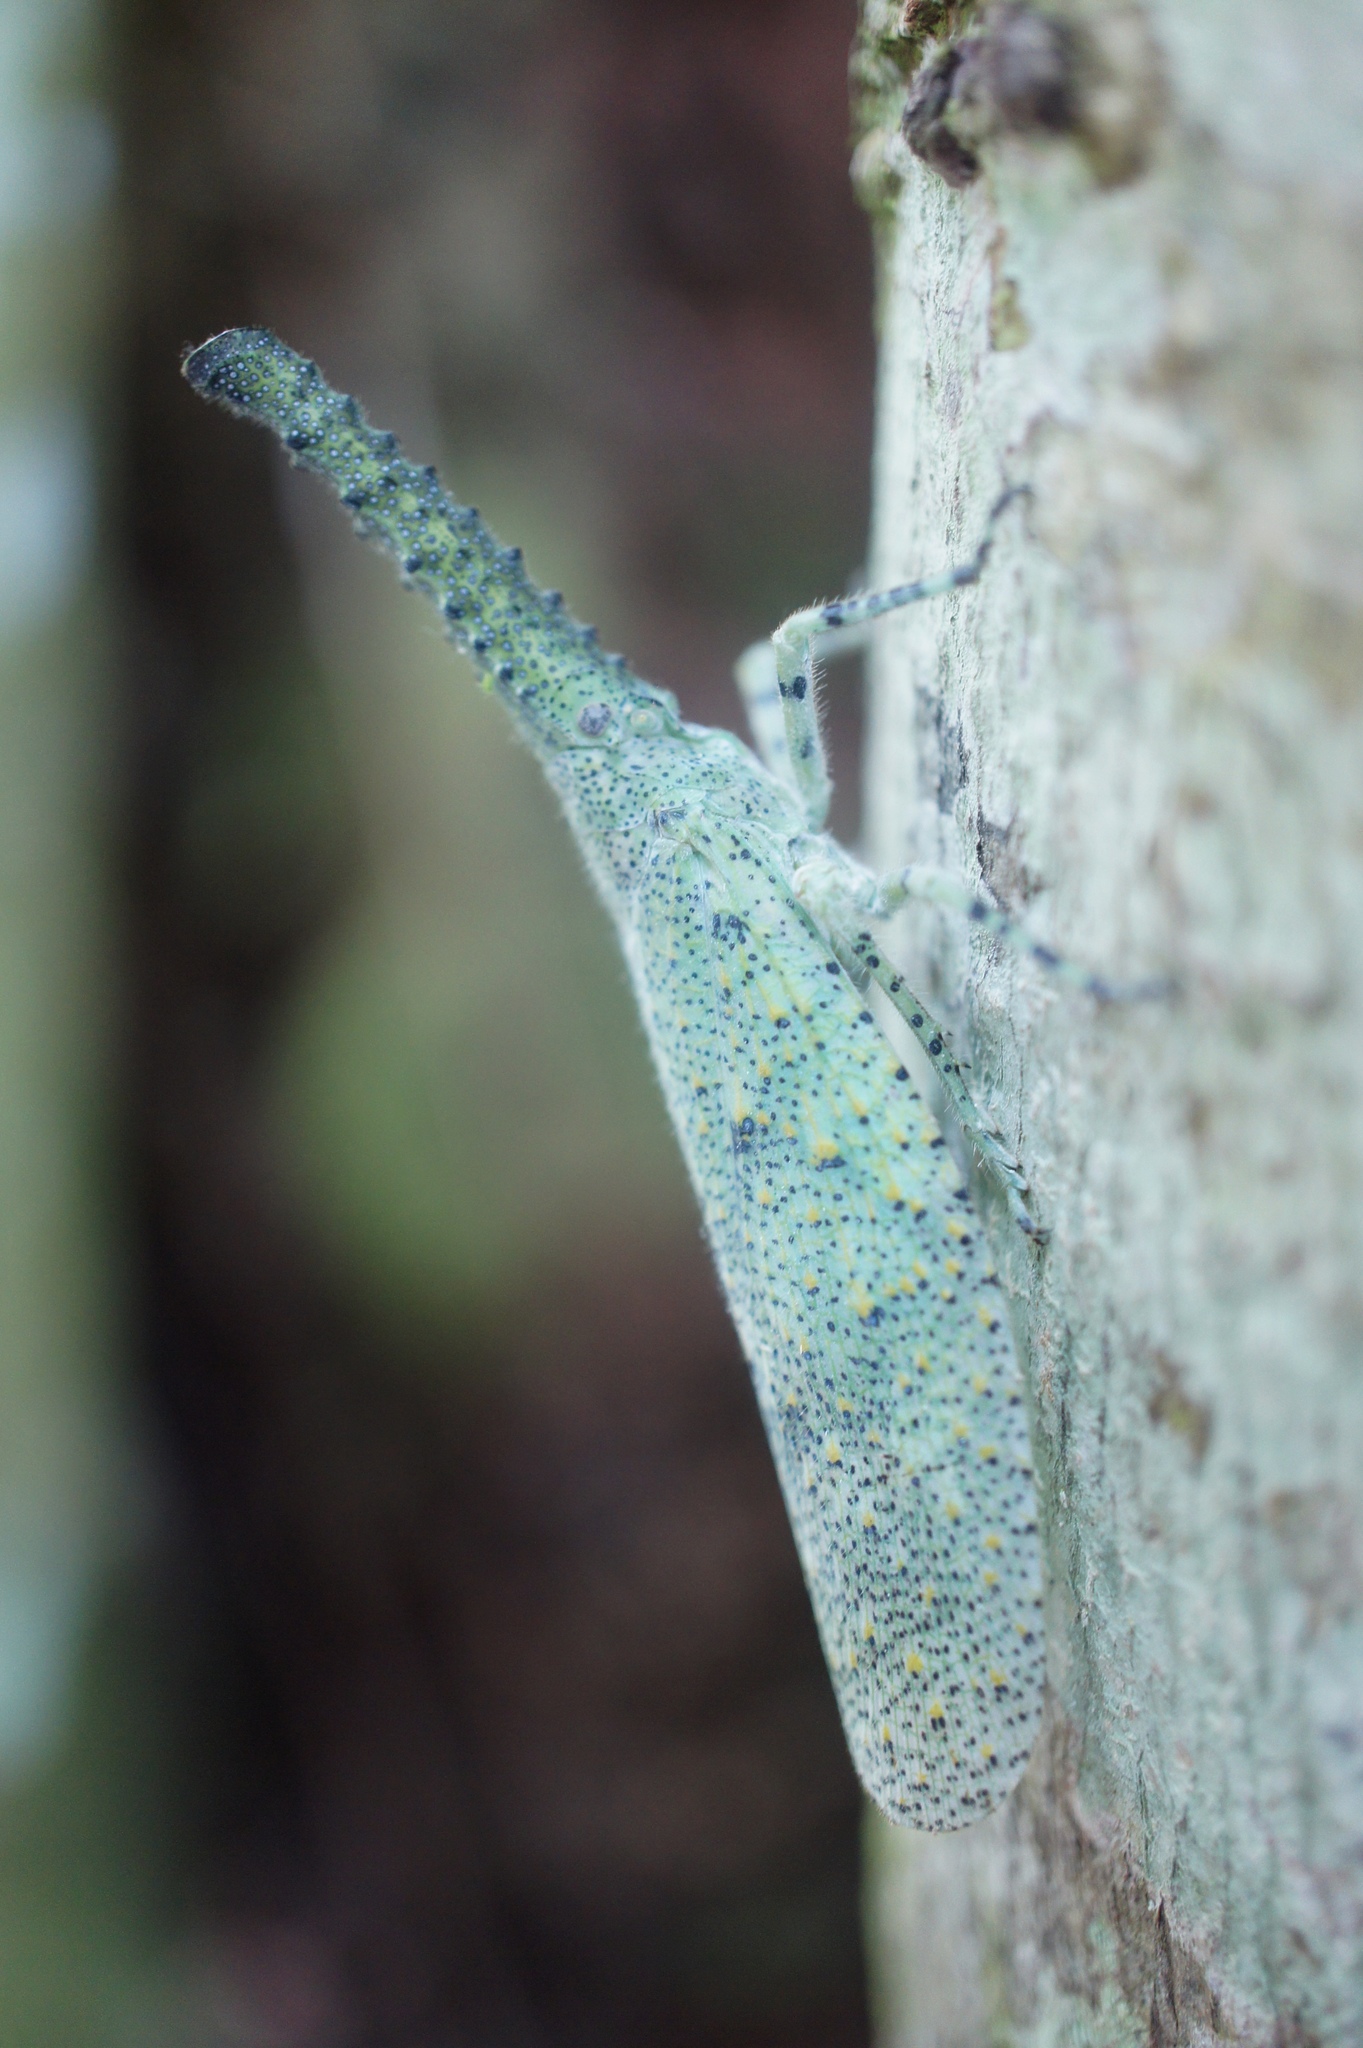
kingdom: Animalia
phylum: Arthropoda
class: Insecta
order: Hemiptera
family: Fulgoridae
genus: Zanna
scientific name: Zanna nobilis
